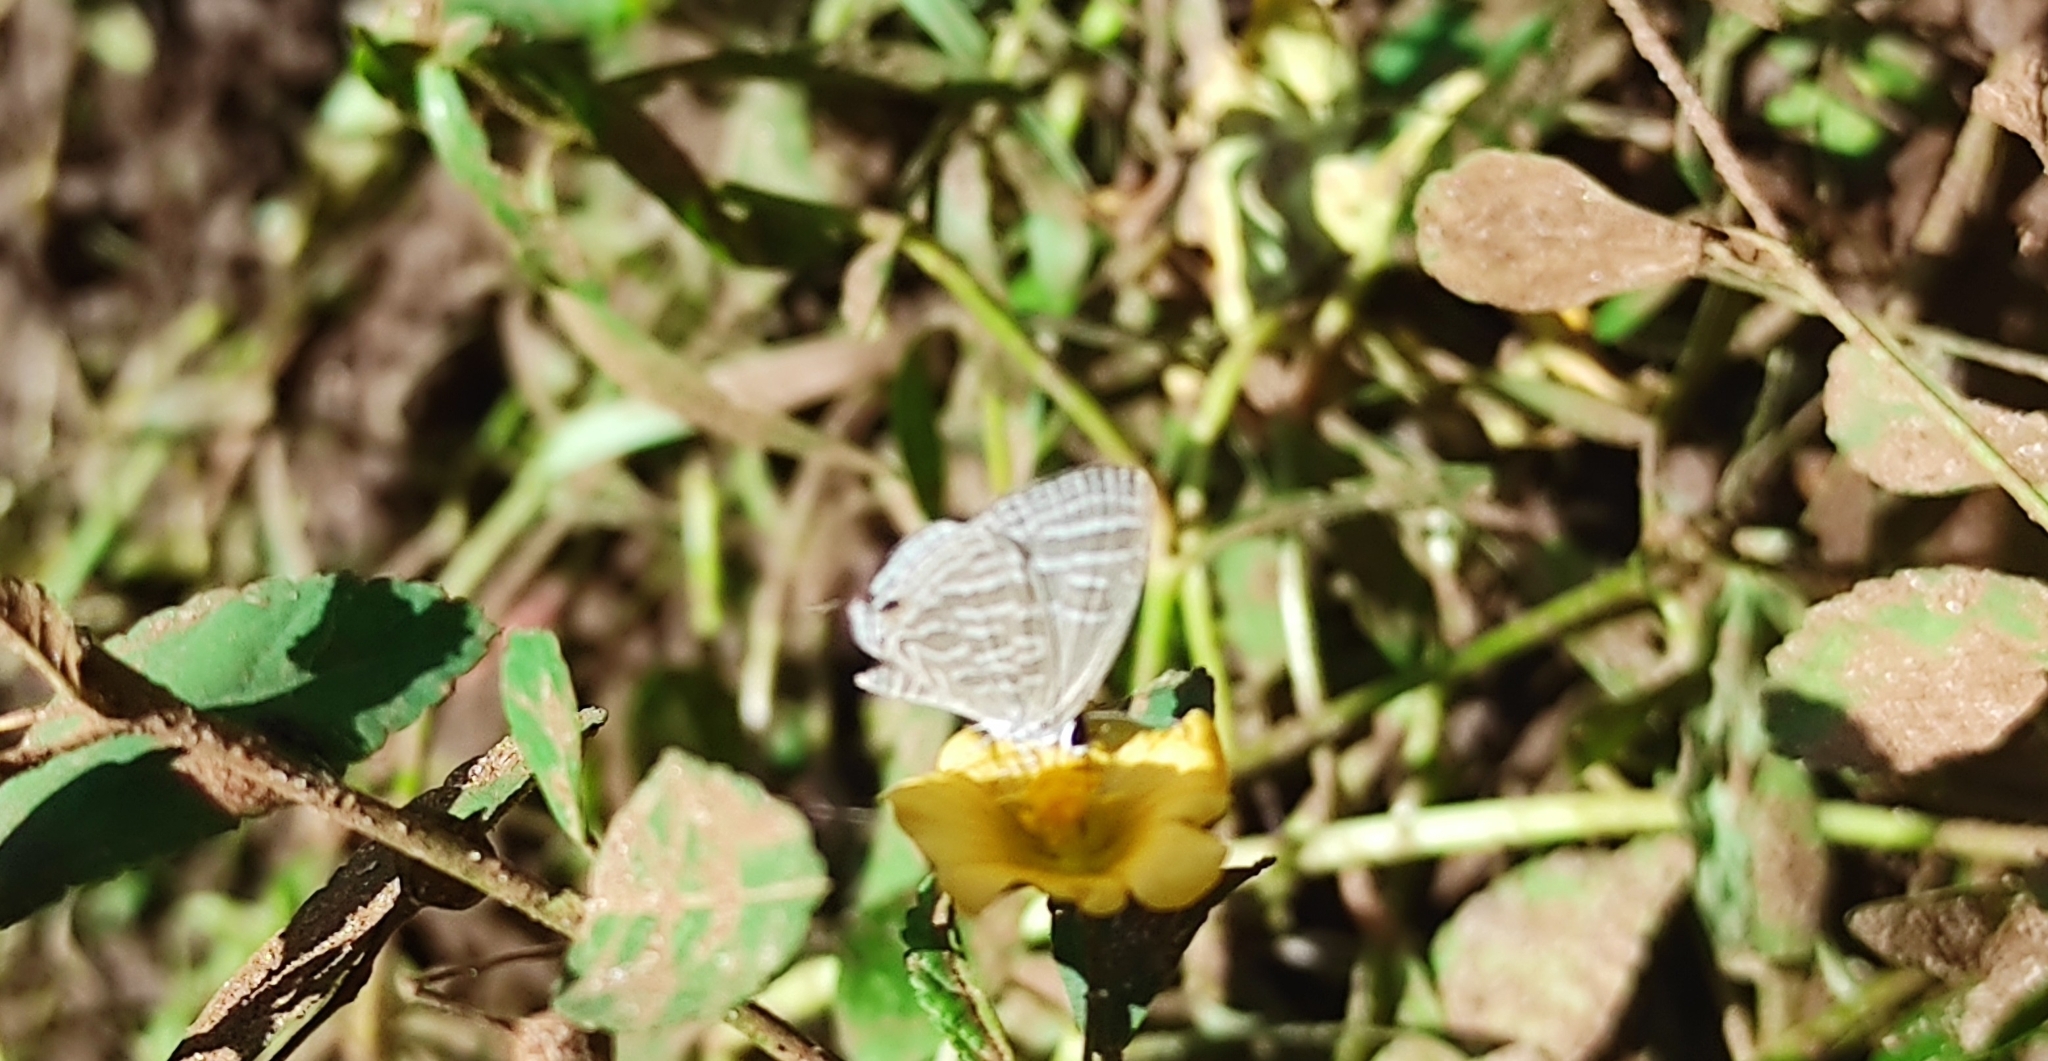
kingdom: Animalia
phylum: Arthropoda
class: Insecta
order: Lepidoptera
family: Lycaenidae
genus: Jamides
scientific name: Jamides celeno
